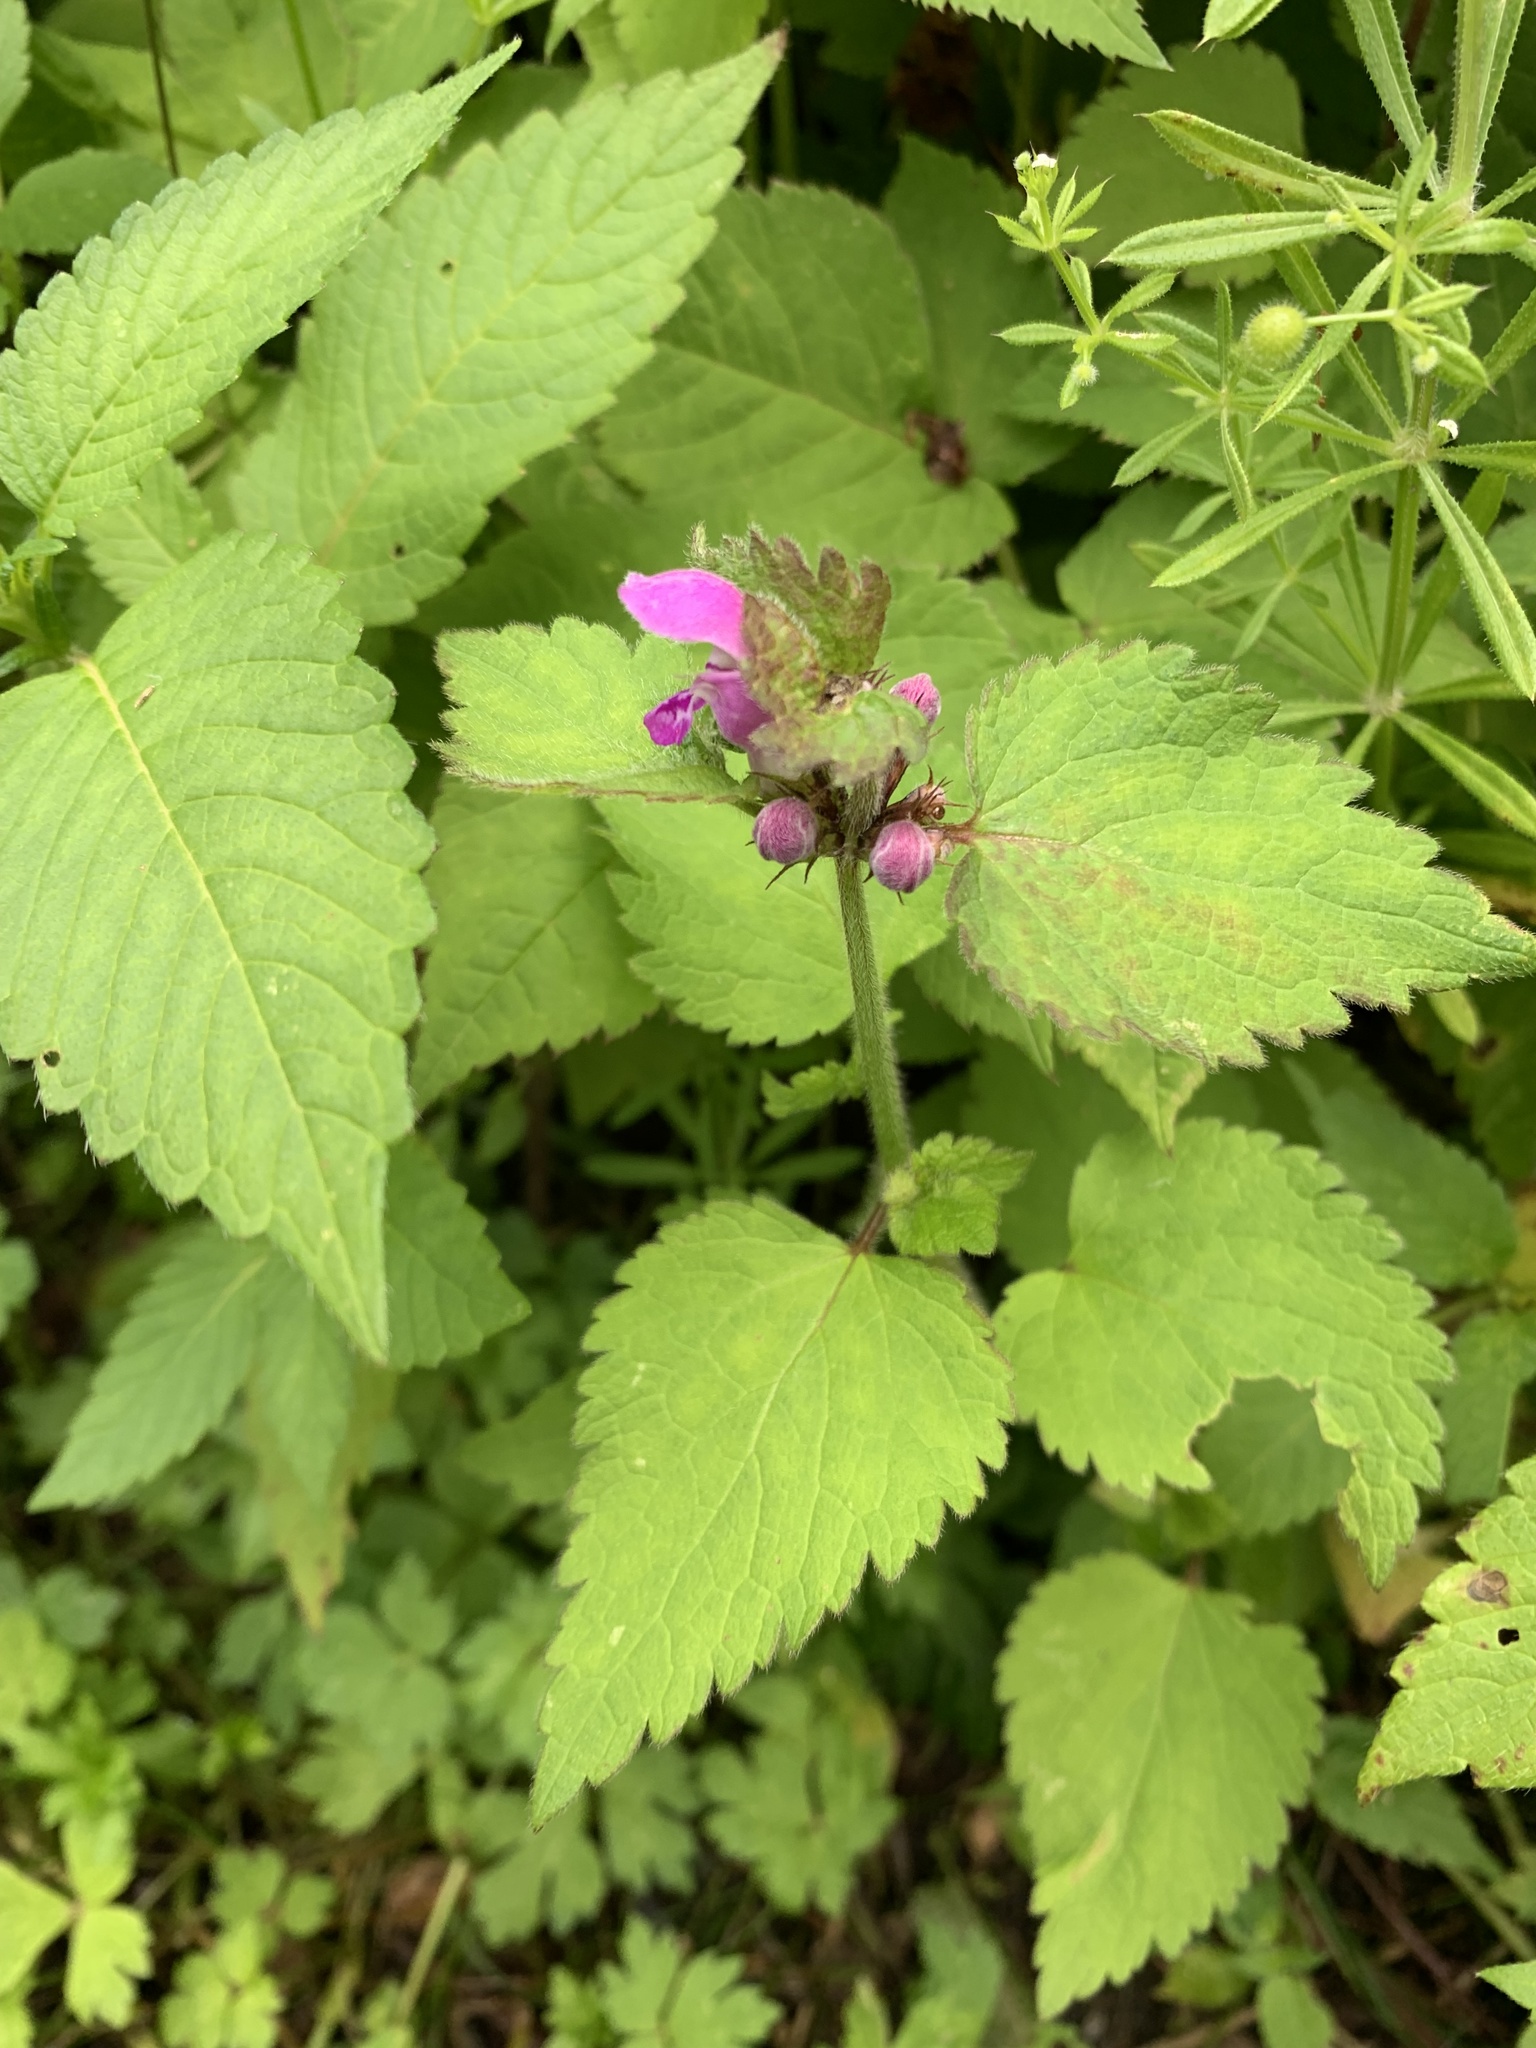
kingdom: Plantae
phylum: Tracheophyta
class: Magnoliopsida
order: Lamiales
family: Lamiaceae
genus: Lamium
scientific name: Lamium maculatum
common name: Spotted dead-nettle
